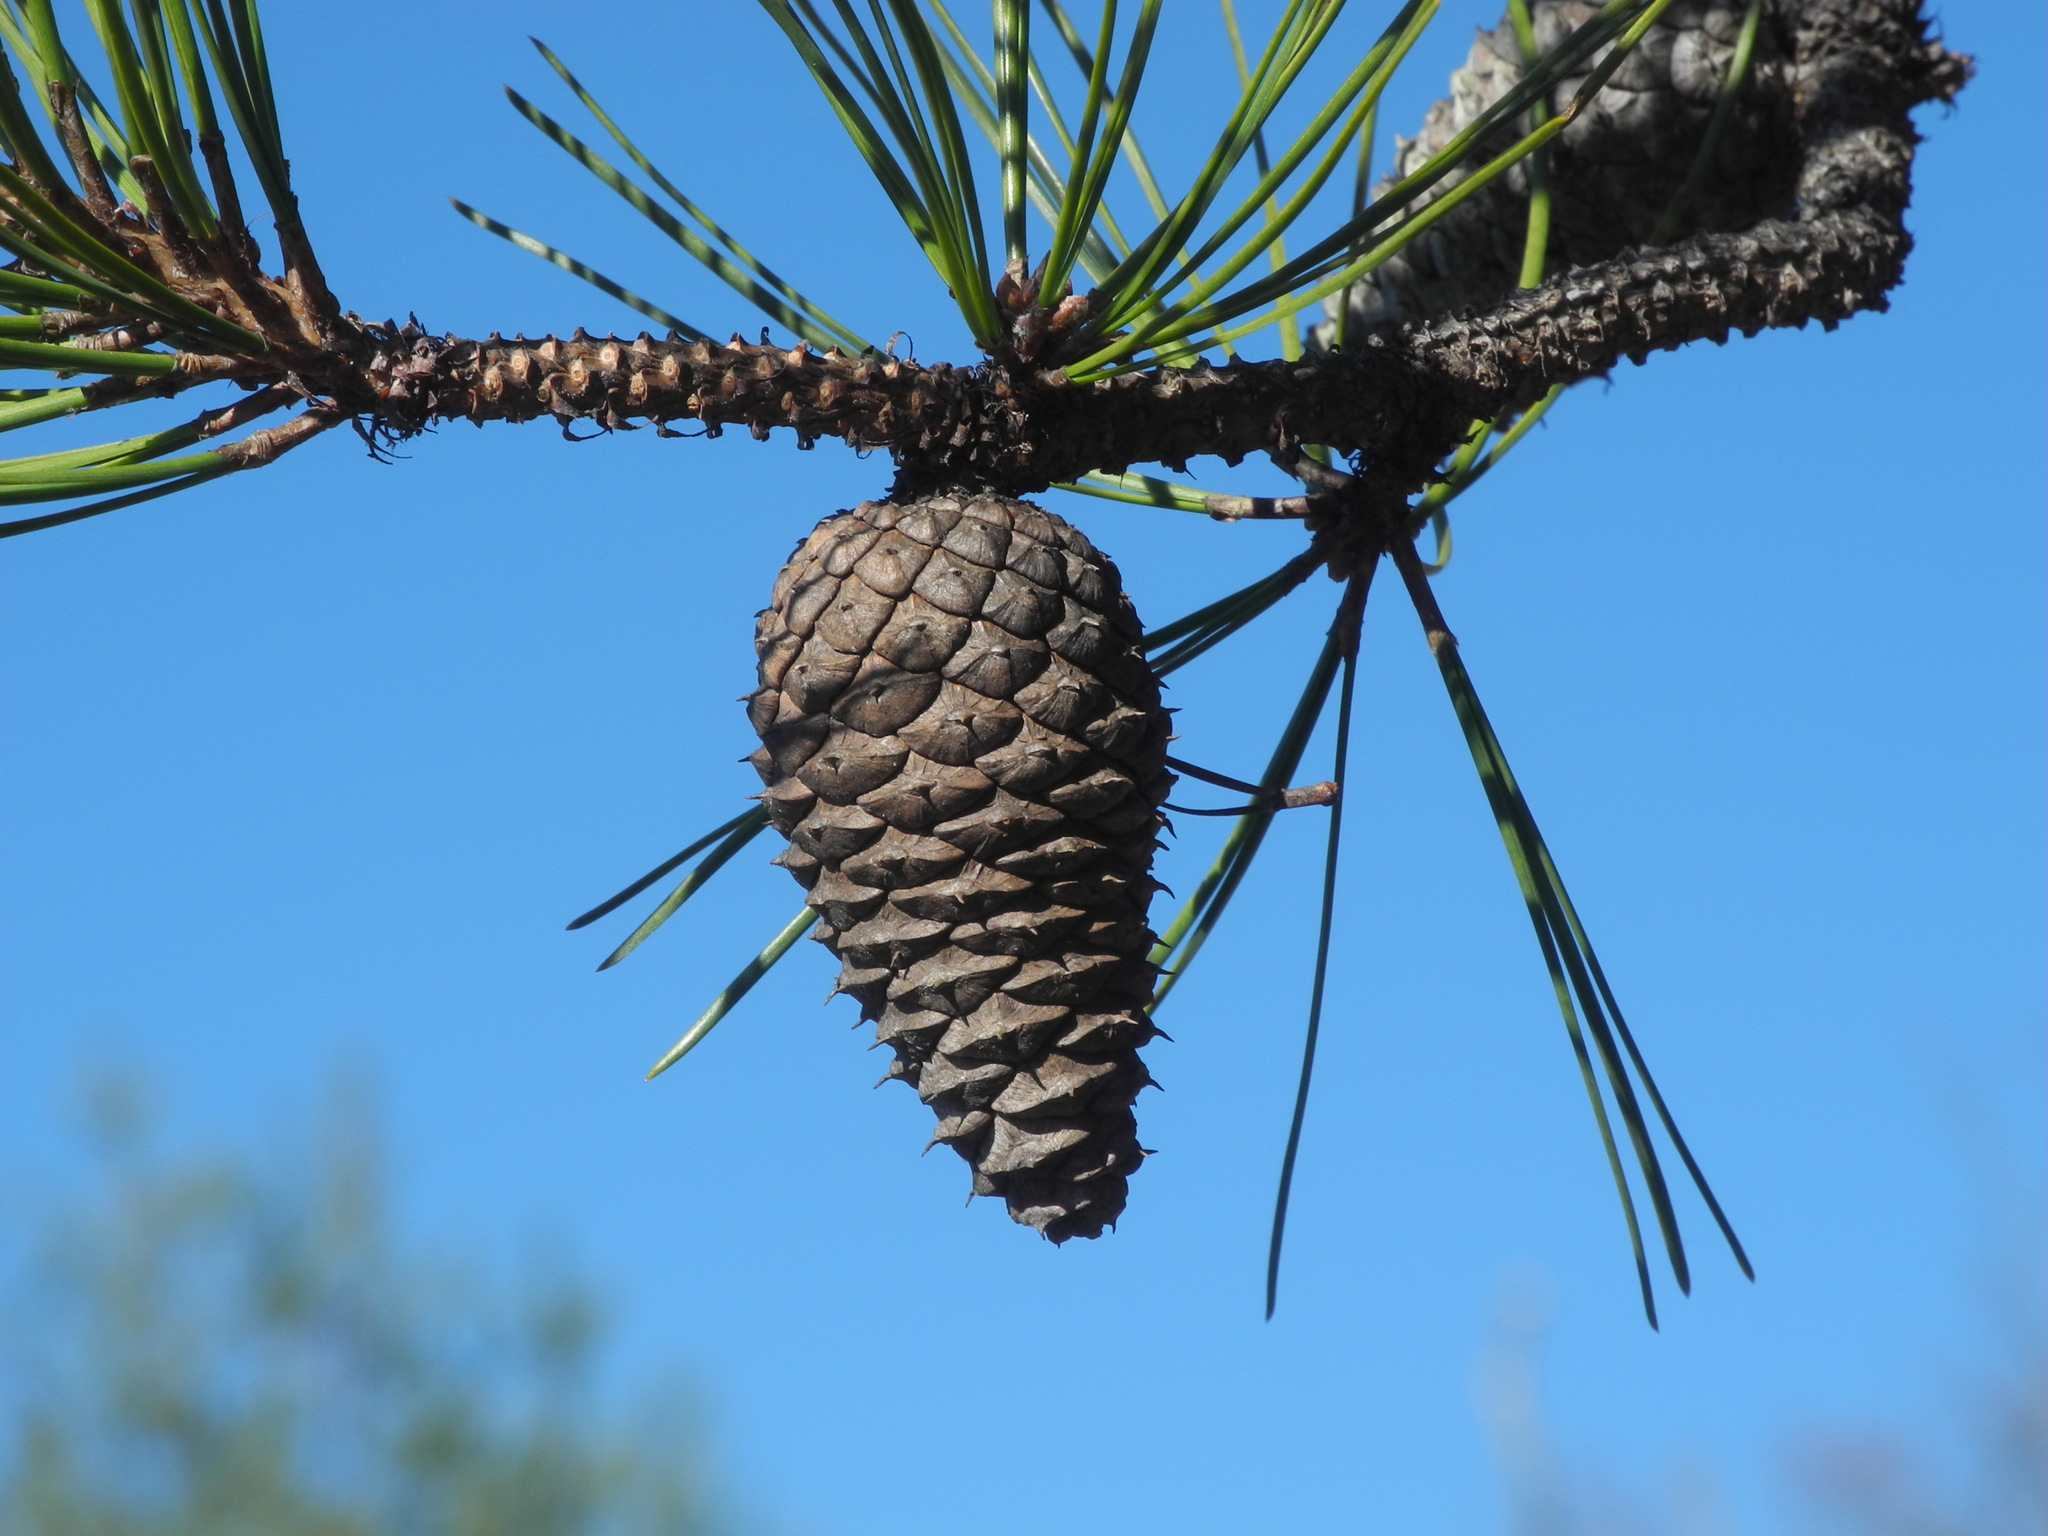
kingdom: Plantae
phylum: Tracheophyta
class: Pinopsida
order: Pinales
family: Pinaceae
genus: Pinus
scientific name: Pinus rigida
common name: Pitch pine
